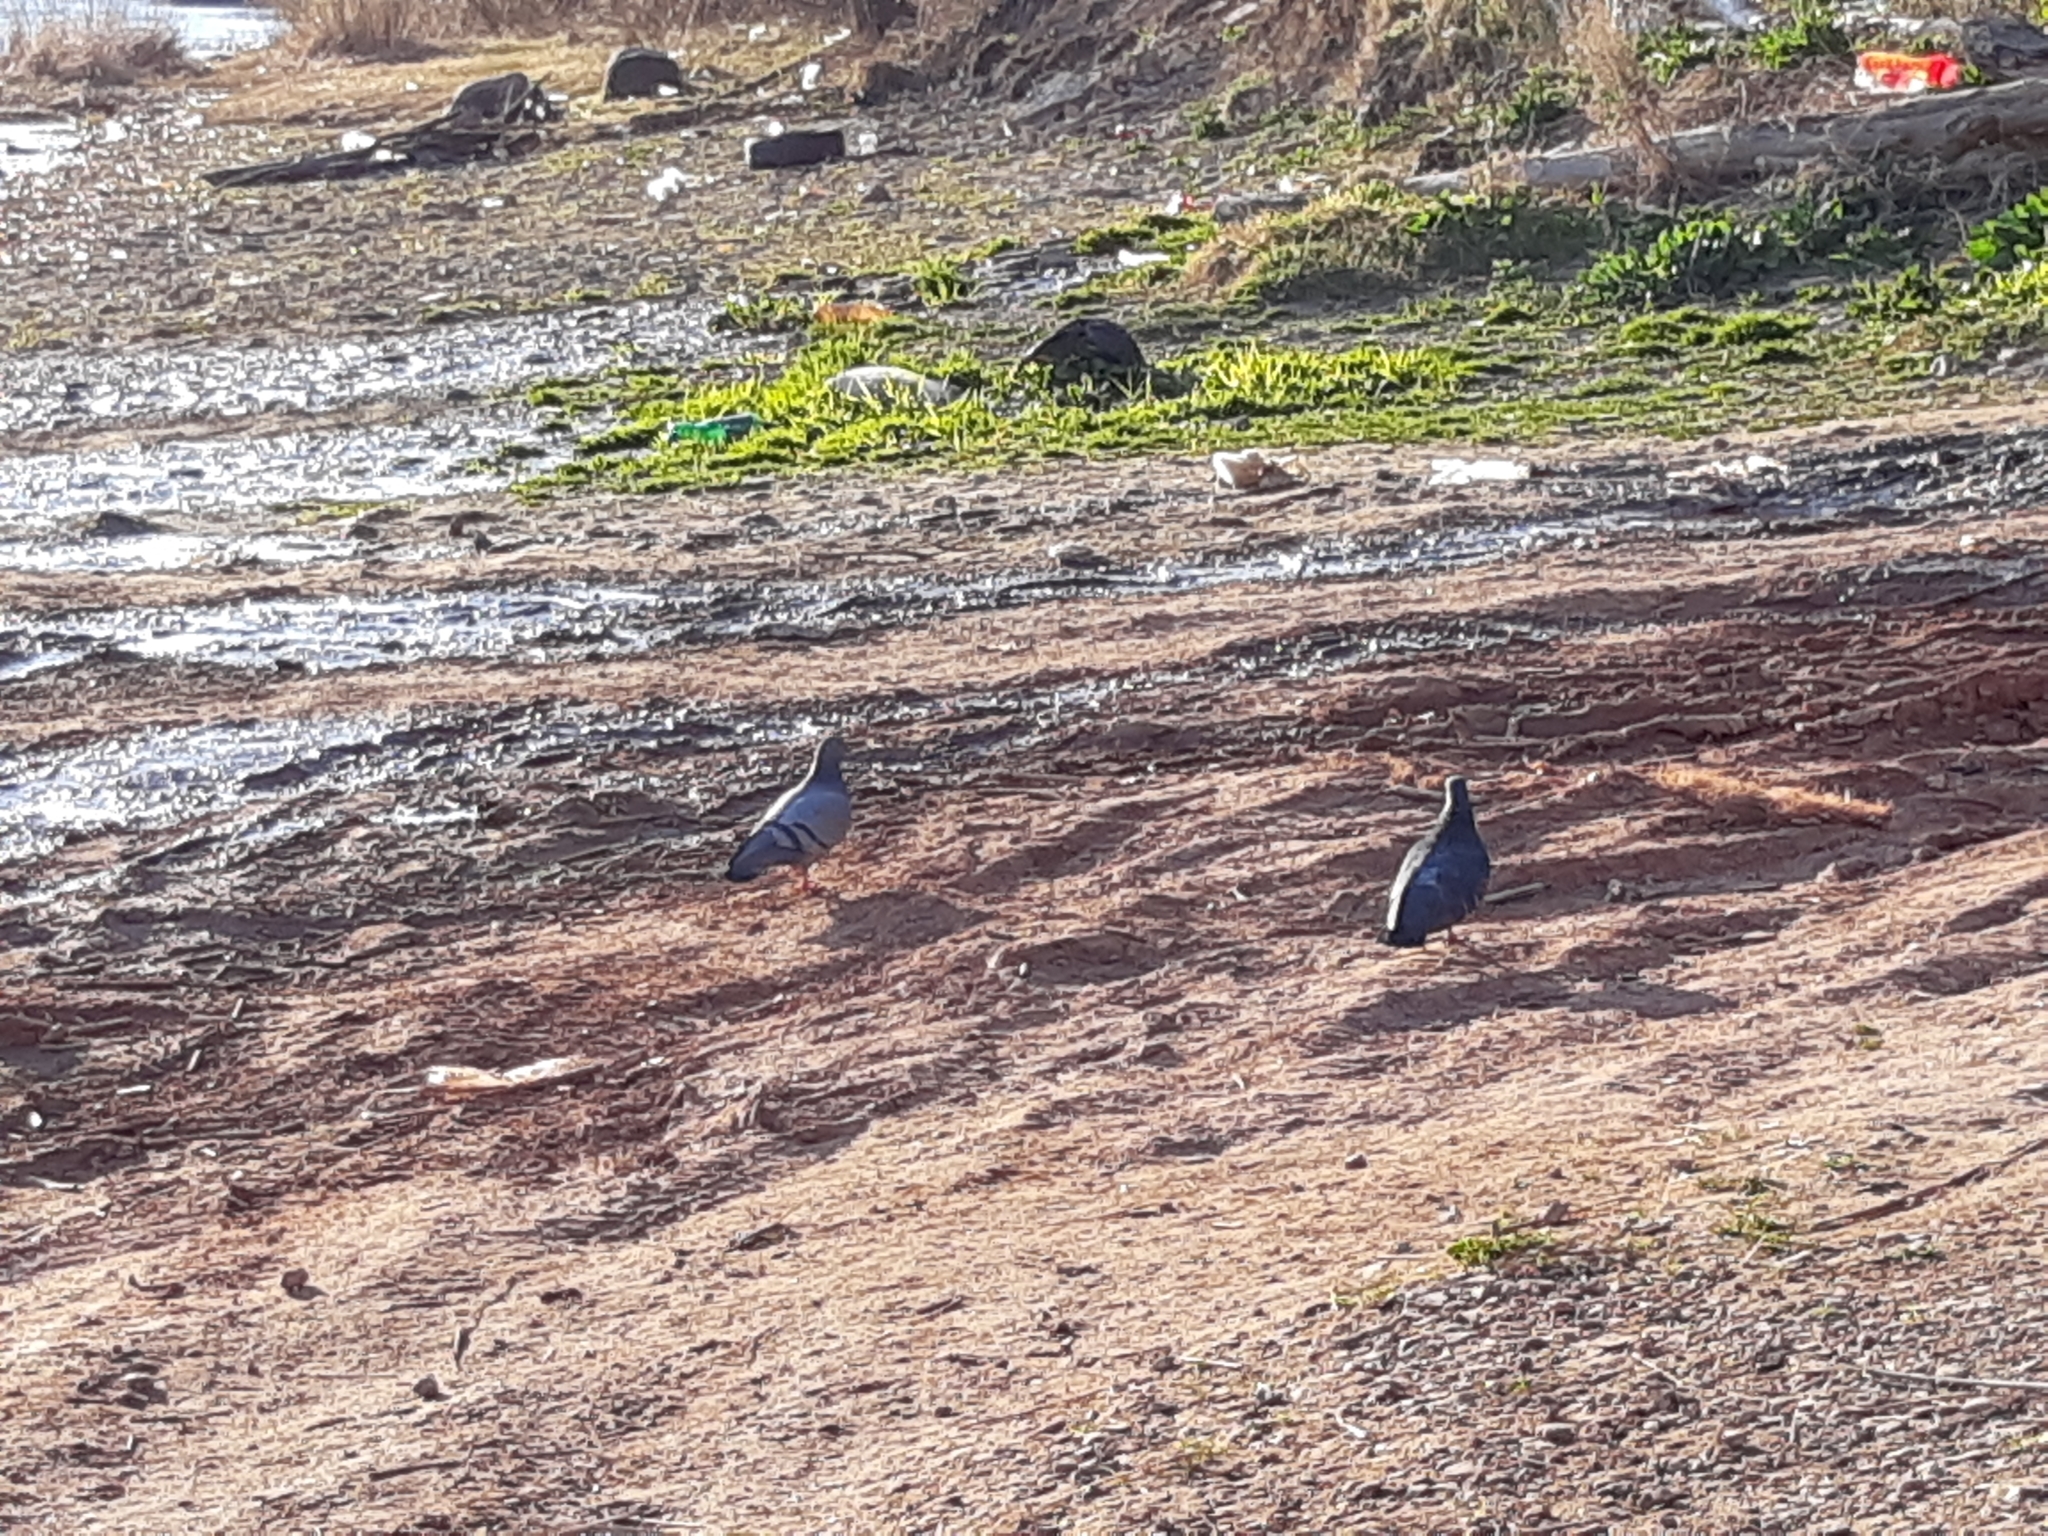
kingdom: Animalia
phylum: Chordata
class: Aves
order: Columbiformes
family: Columbidae
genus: Columba
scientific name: Columba livia
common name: Rock pigeon
